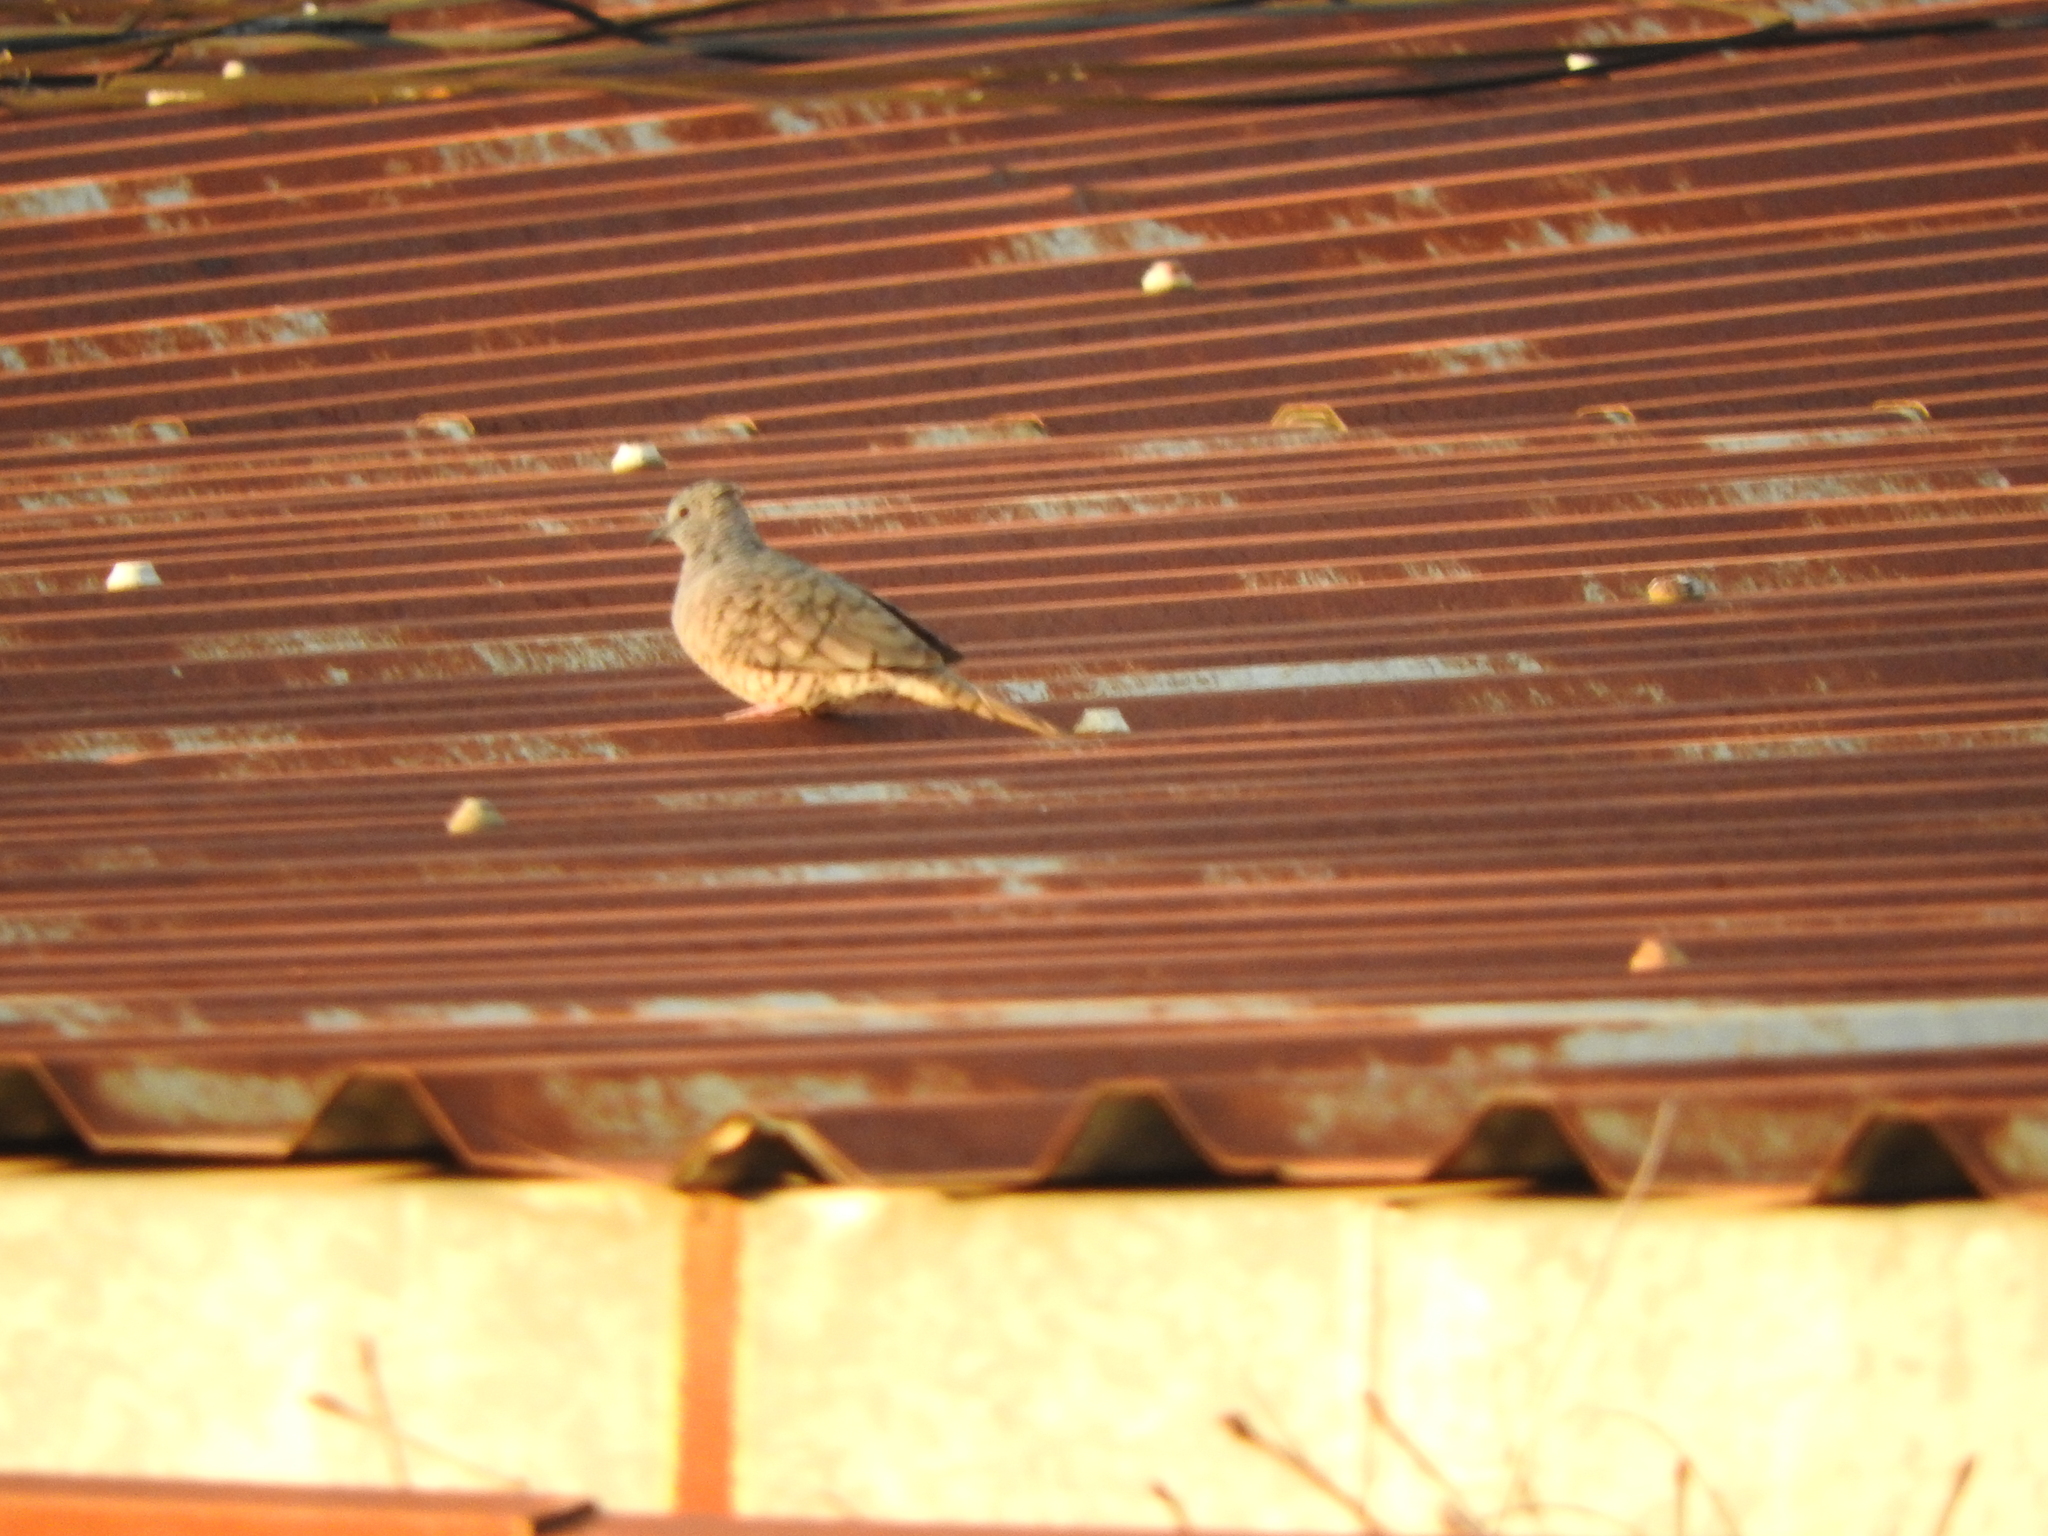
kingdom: Animalia
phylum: Chordata
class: Aves
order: Columbiformes
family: Columbidae
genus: Columbina
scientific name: Columbina inca
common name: Inca dove
